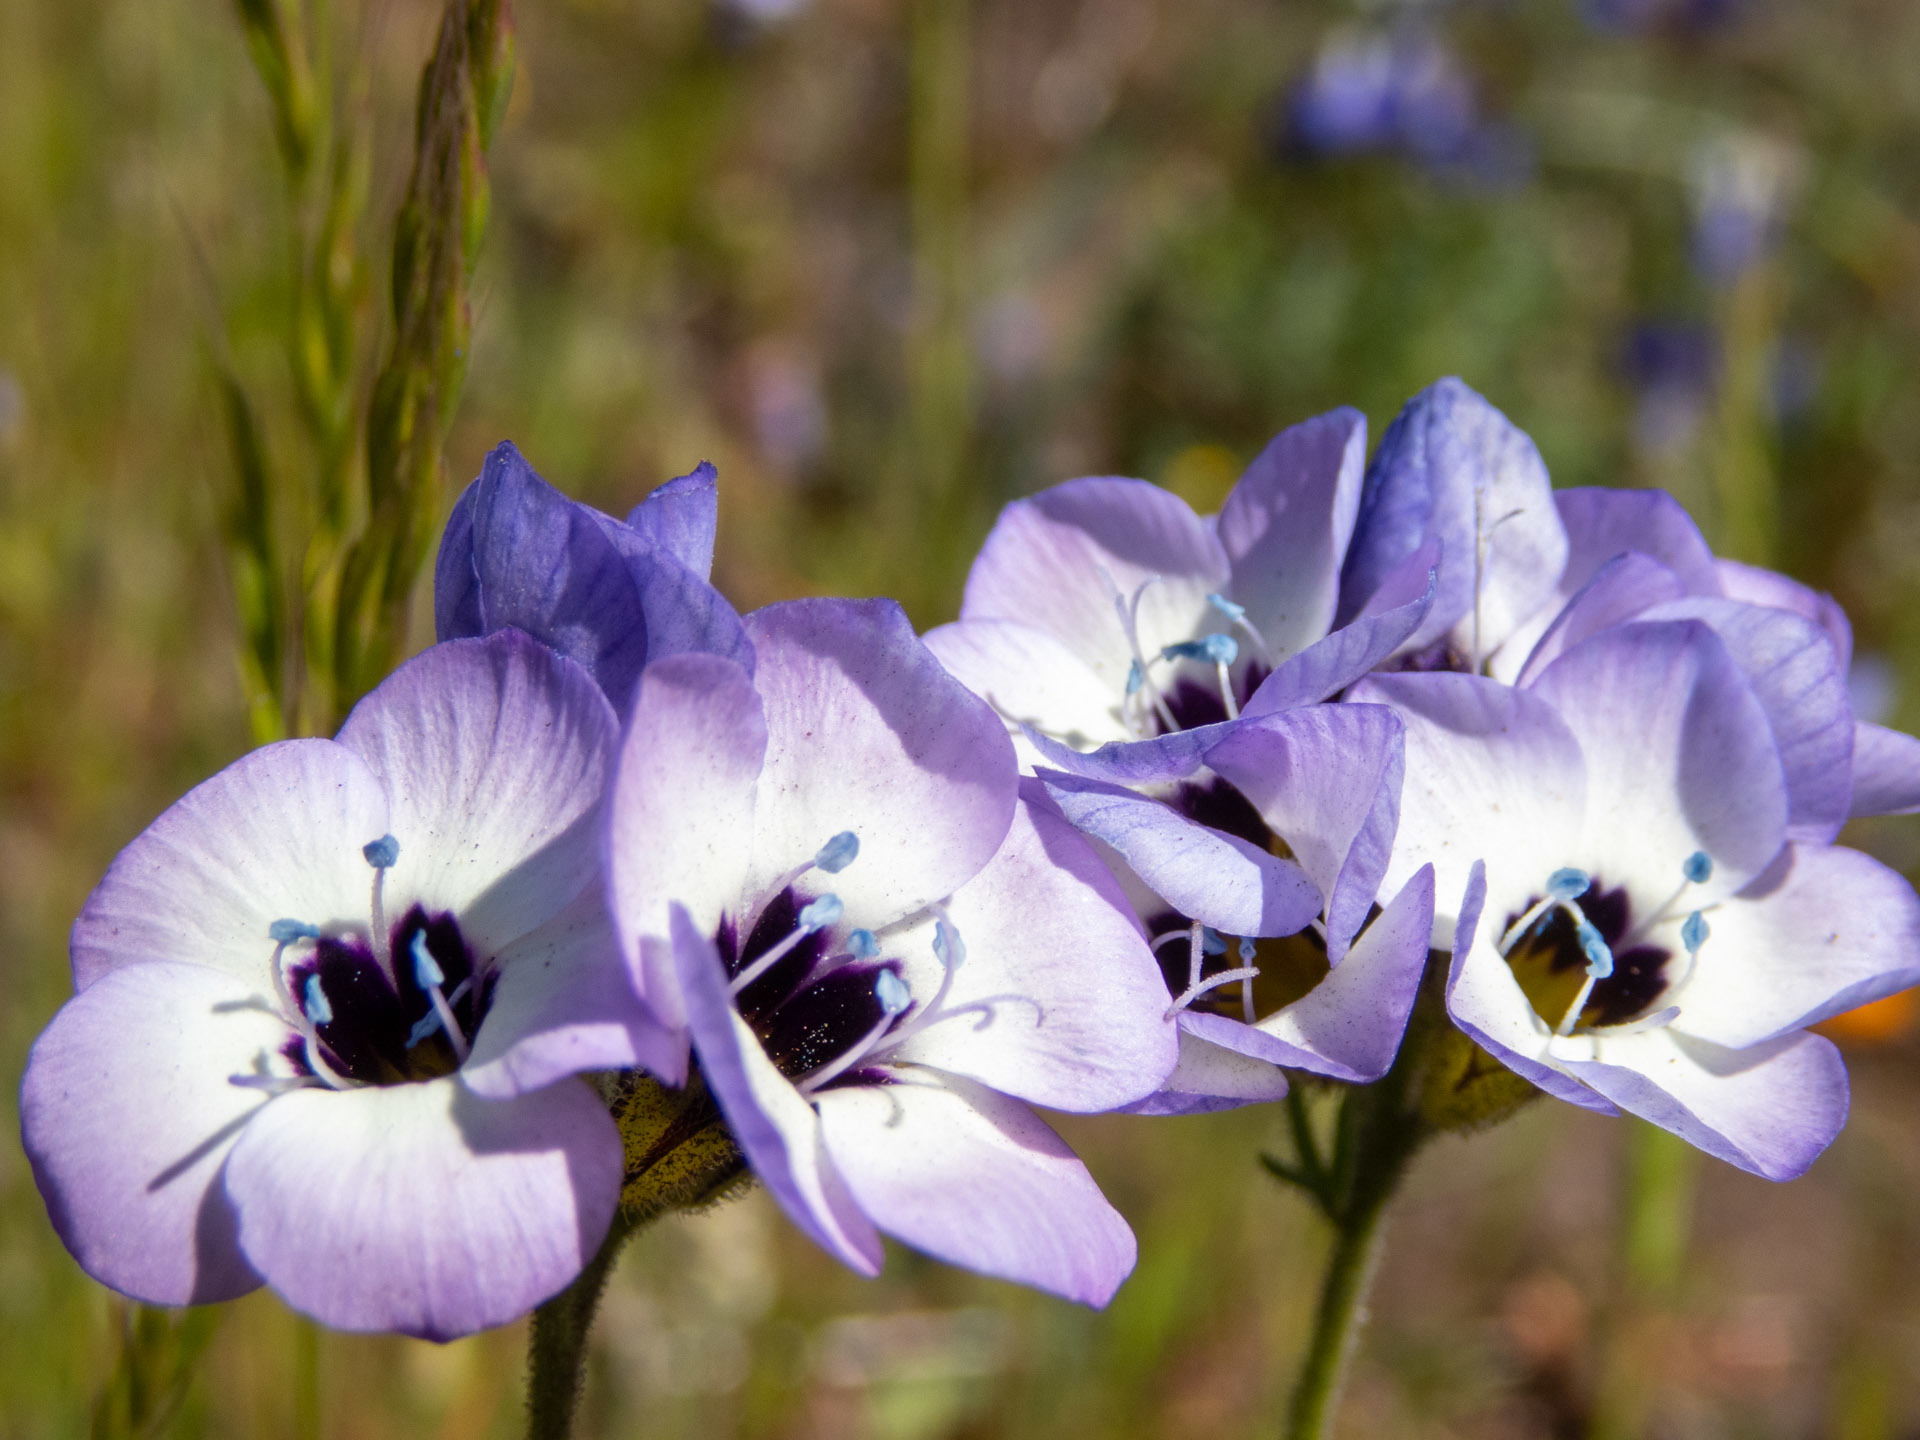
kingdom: Plantae
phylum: Tracheophyta
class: Magnoliopsida
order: Ericales
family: Polemoniaceae
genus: Gilia
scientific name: Gilia tricolor
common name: Bird's-eyes
